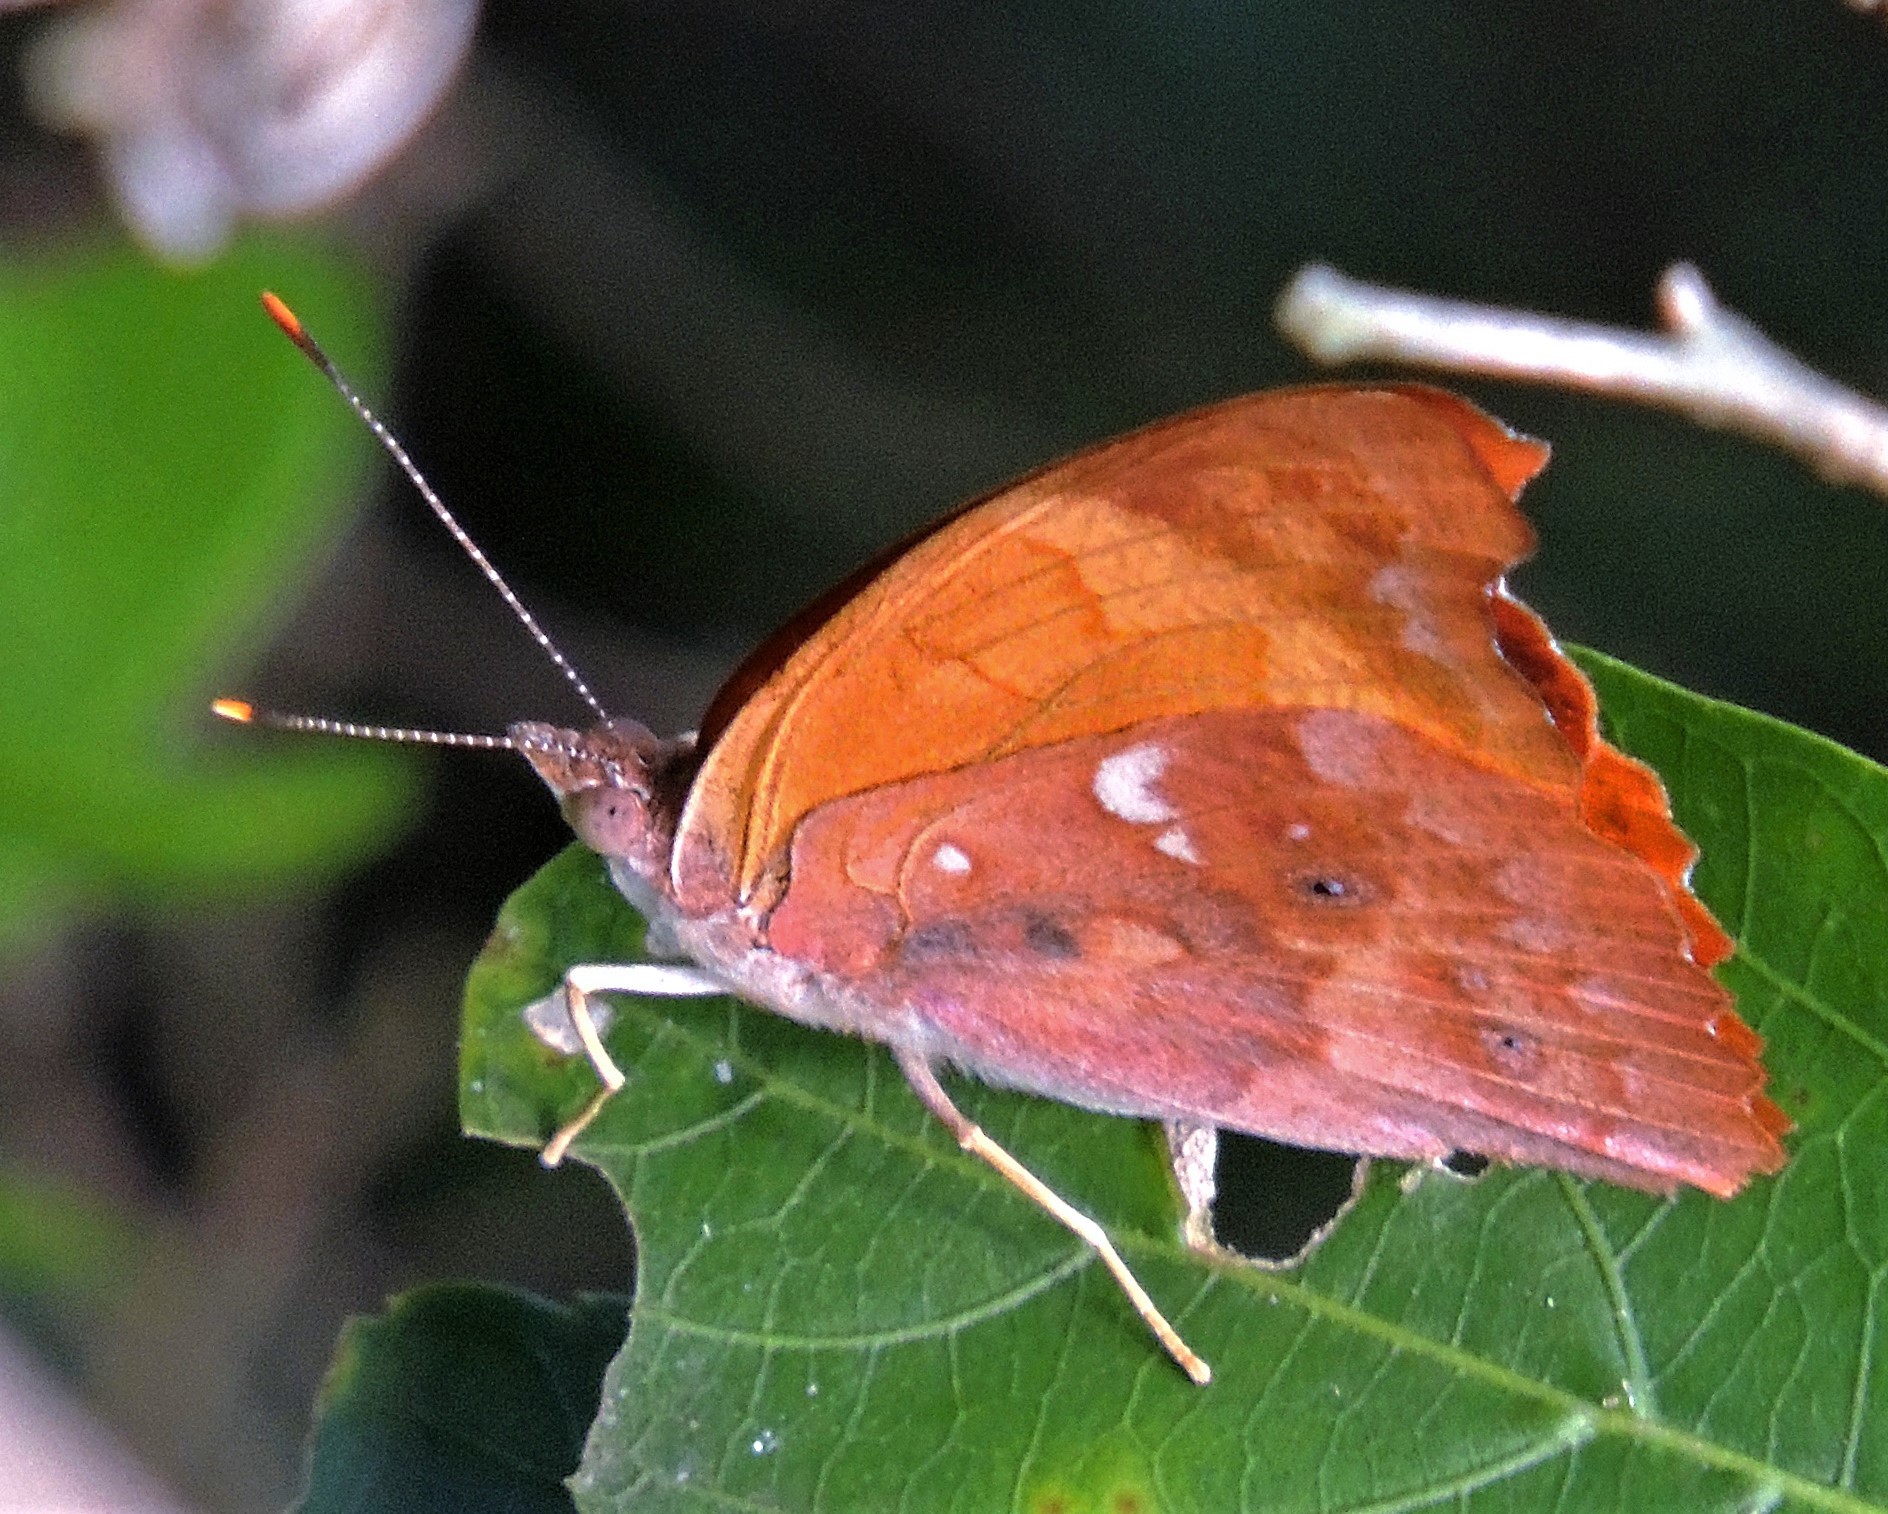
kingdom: Animalia
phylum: Arthropoda
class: Insecta
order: Lepidoptera
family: Nymphalidae
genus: Temenis
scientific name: Temenis laothoe
